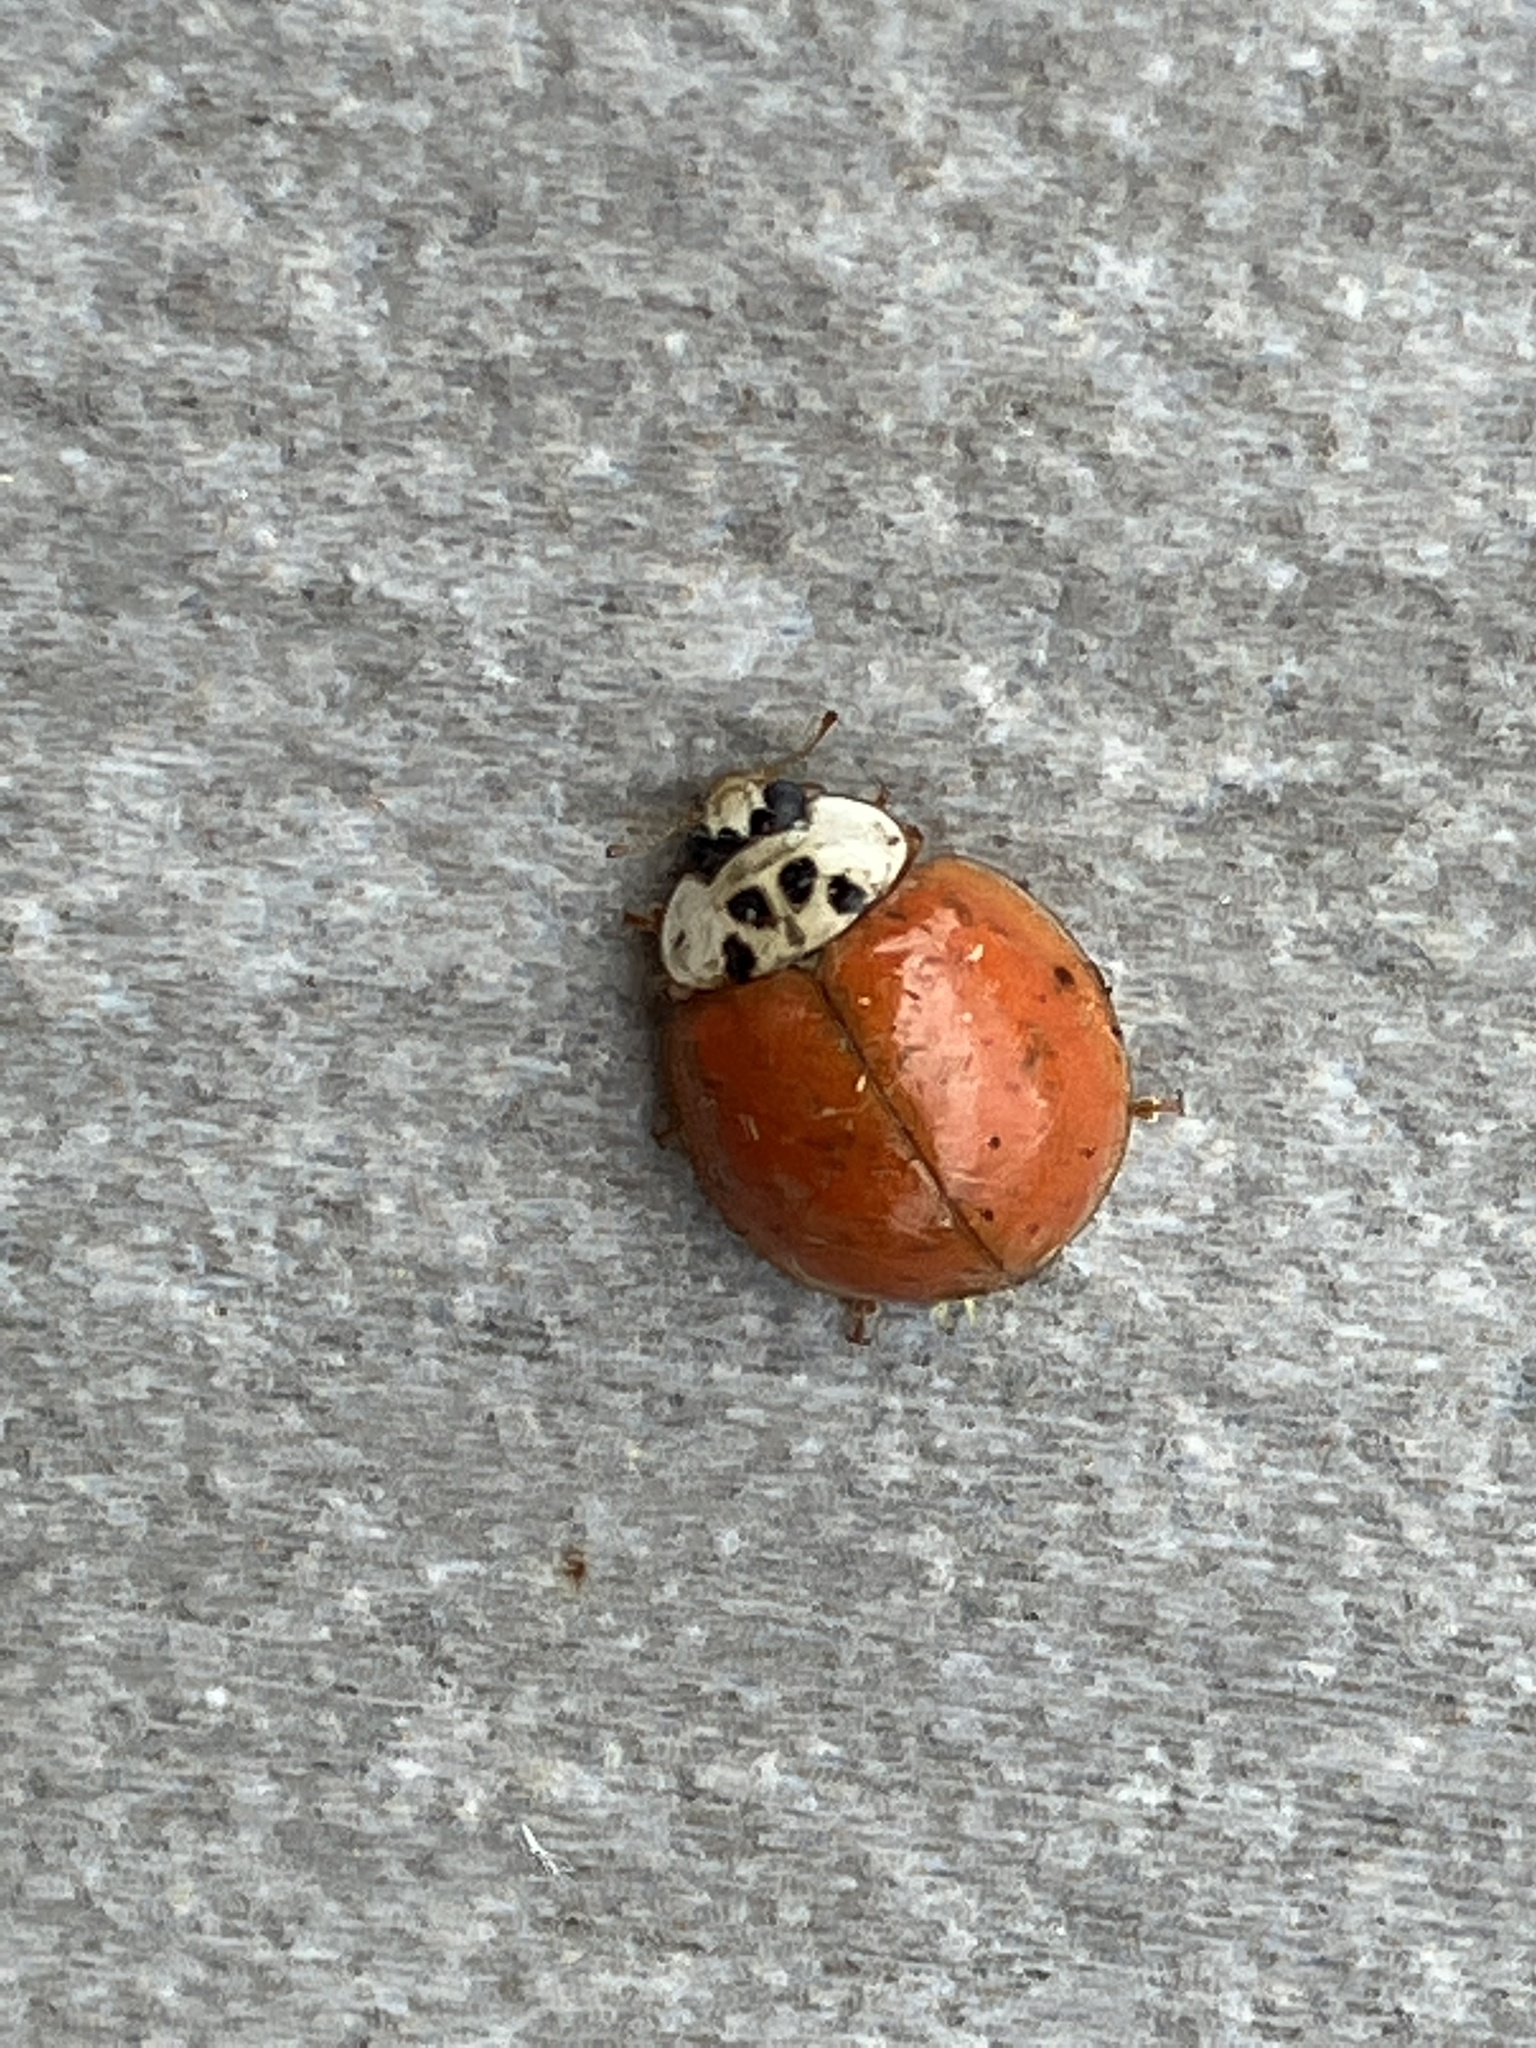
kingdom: Animalia
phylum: Arthropoda
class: Insecta
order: Coleoptera
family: Coccinellidae
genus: Harmonia
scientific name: Harmonia axyridis
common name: Harlequin ladybird
